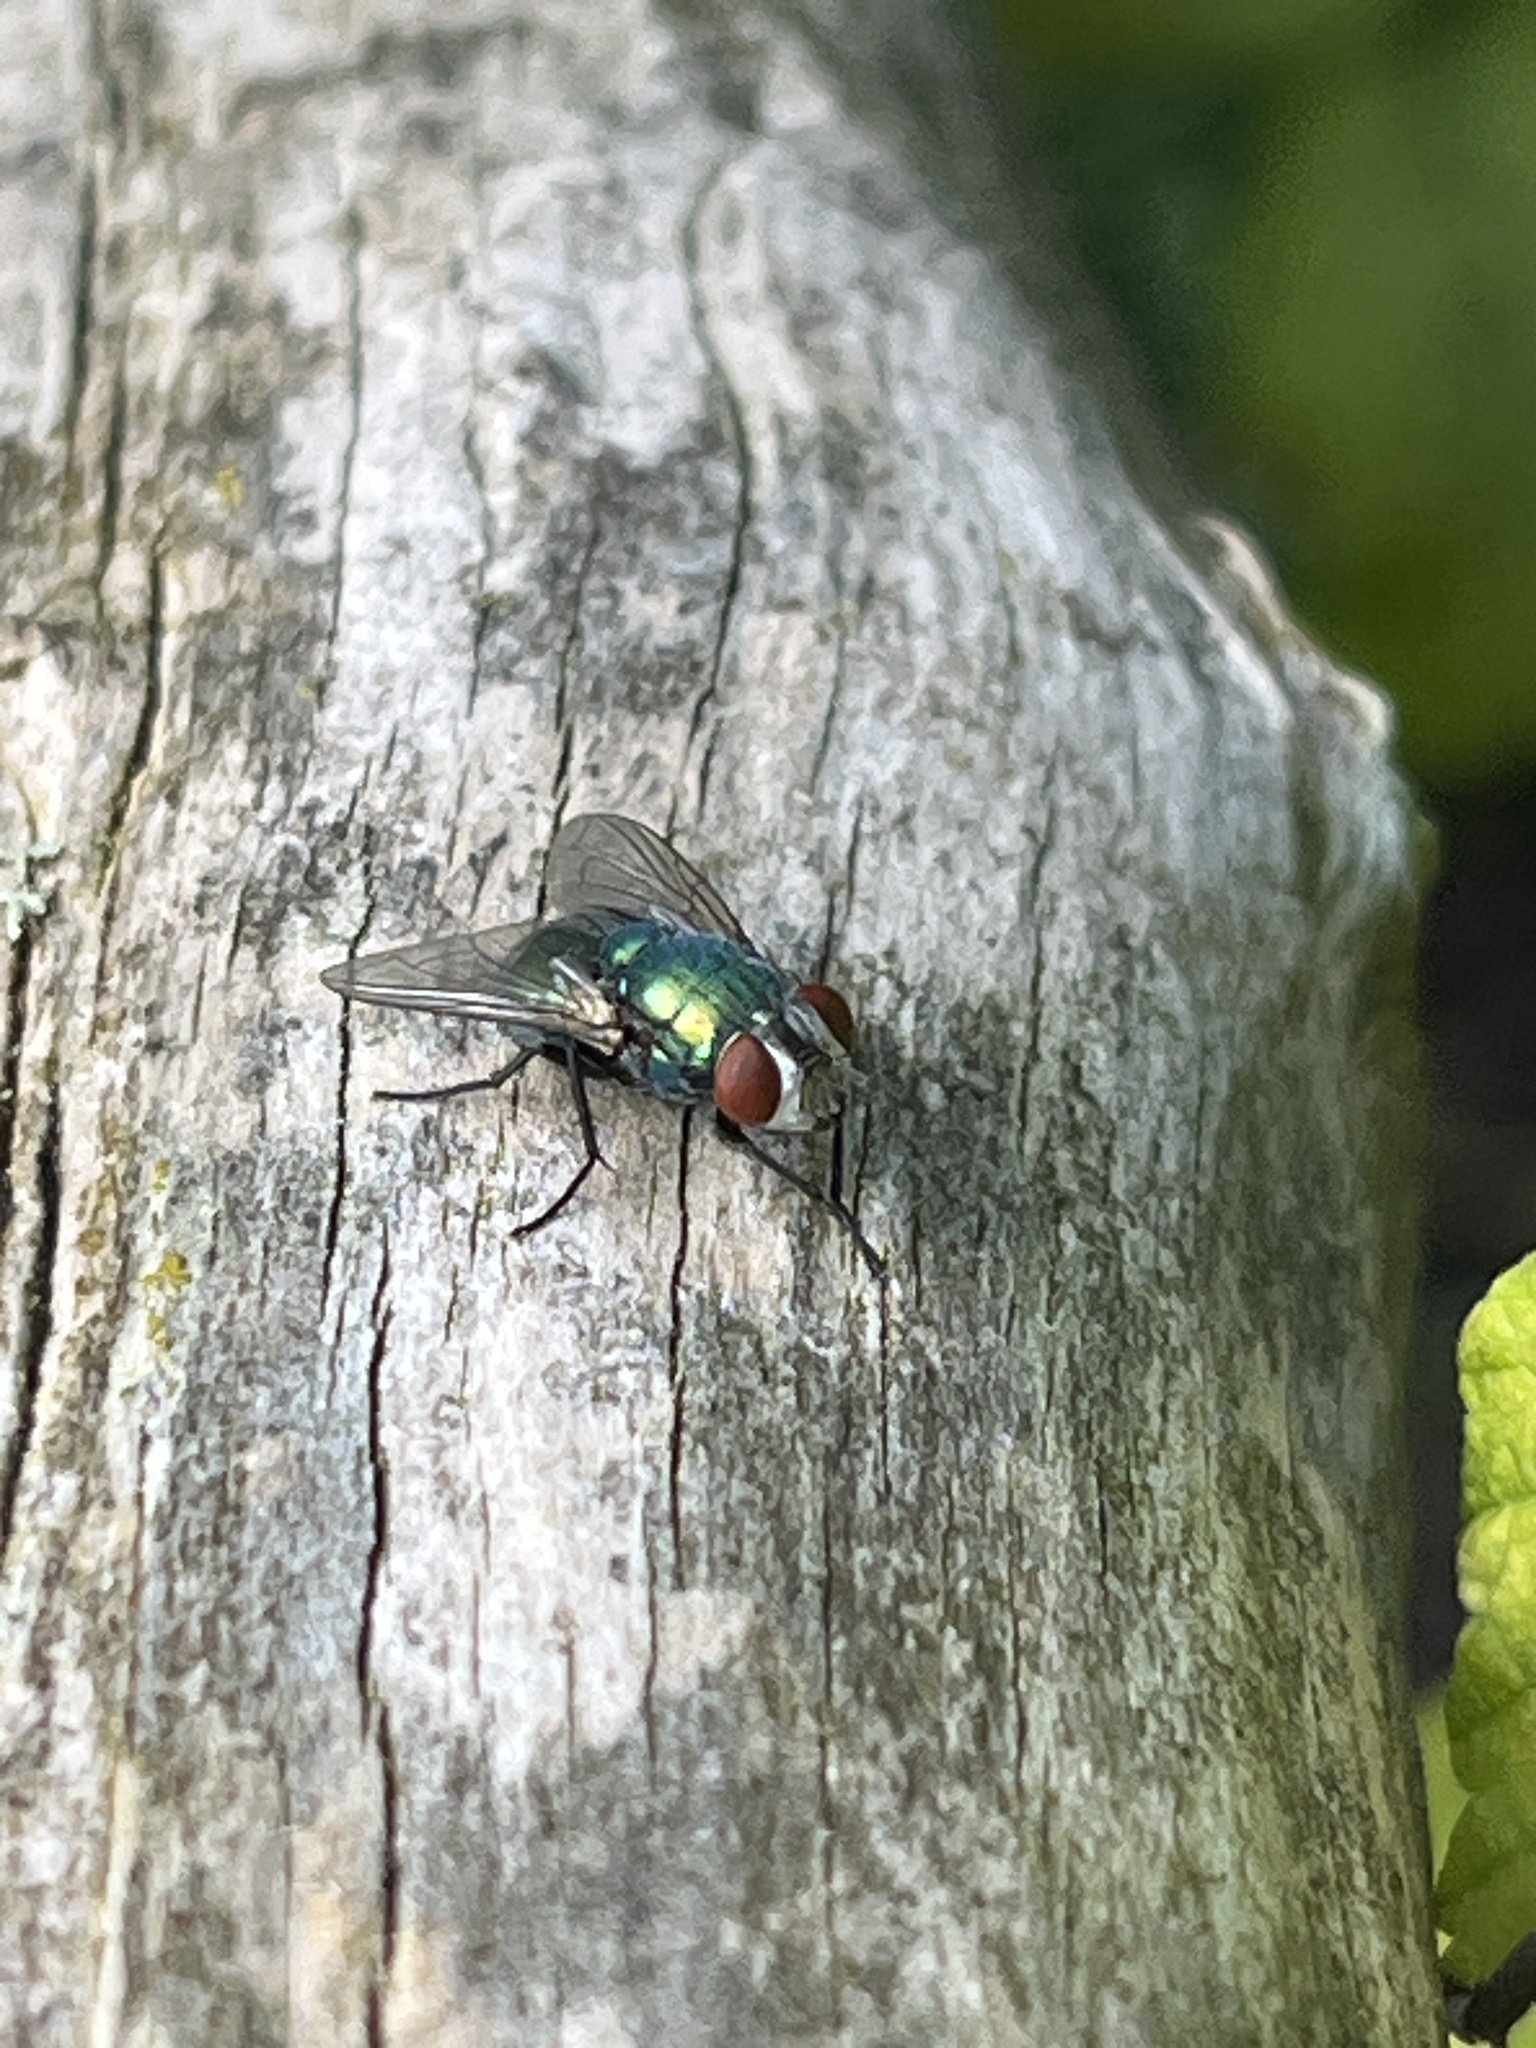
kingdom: Animalia
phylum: Arthropoda
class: Insecta
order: Diptera
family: Calliphoridae
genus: Lucilia
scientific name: Lucilia
